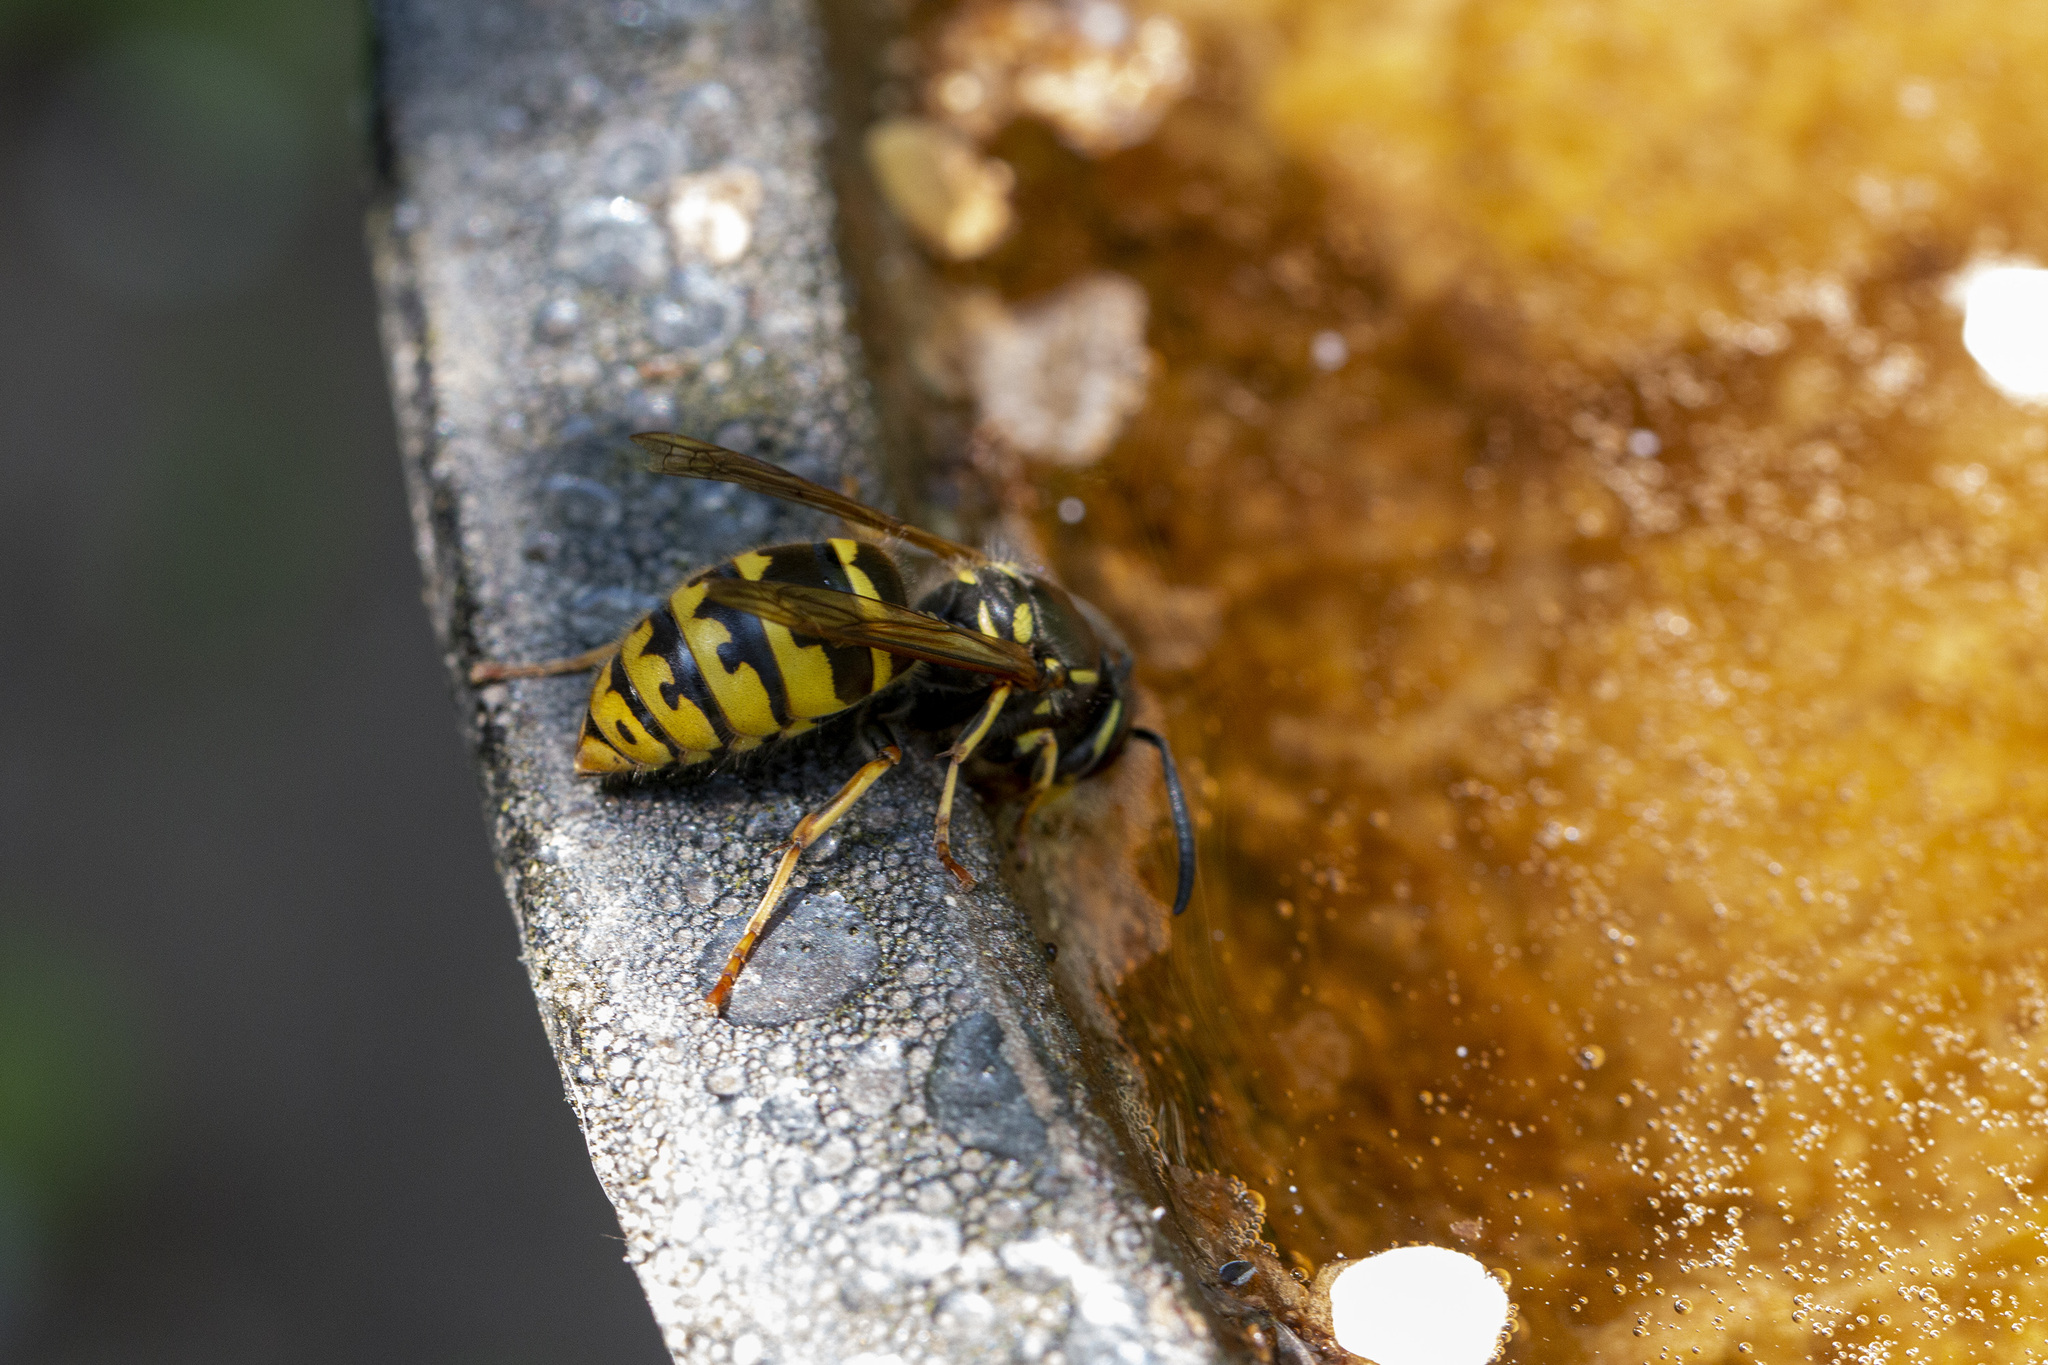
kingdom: Animalia
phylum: Arthropoda
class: Insecta
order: Hymenoptera
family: Vespidae
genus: Vespula
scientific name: Vespula vulgaris
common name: Common wasp
